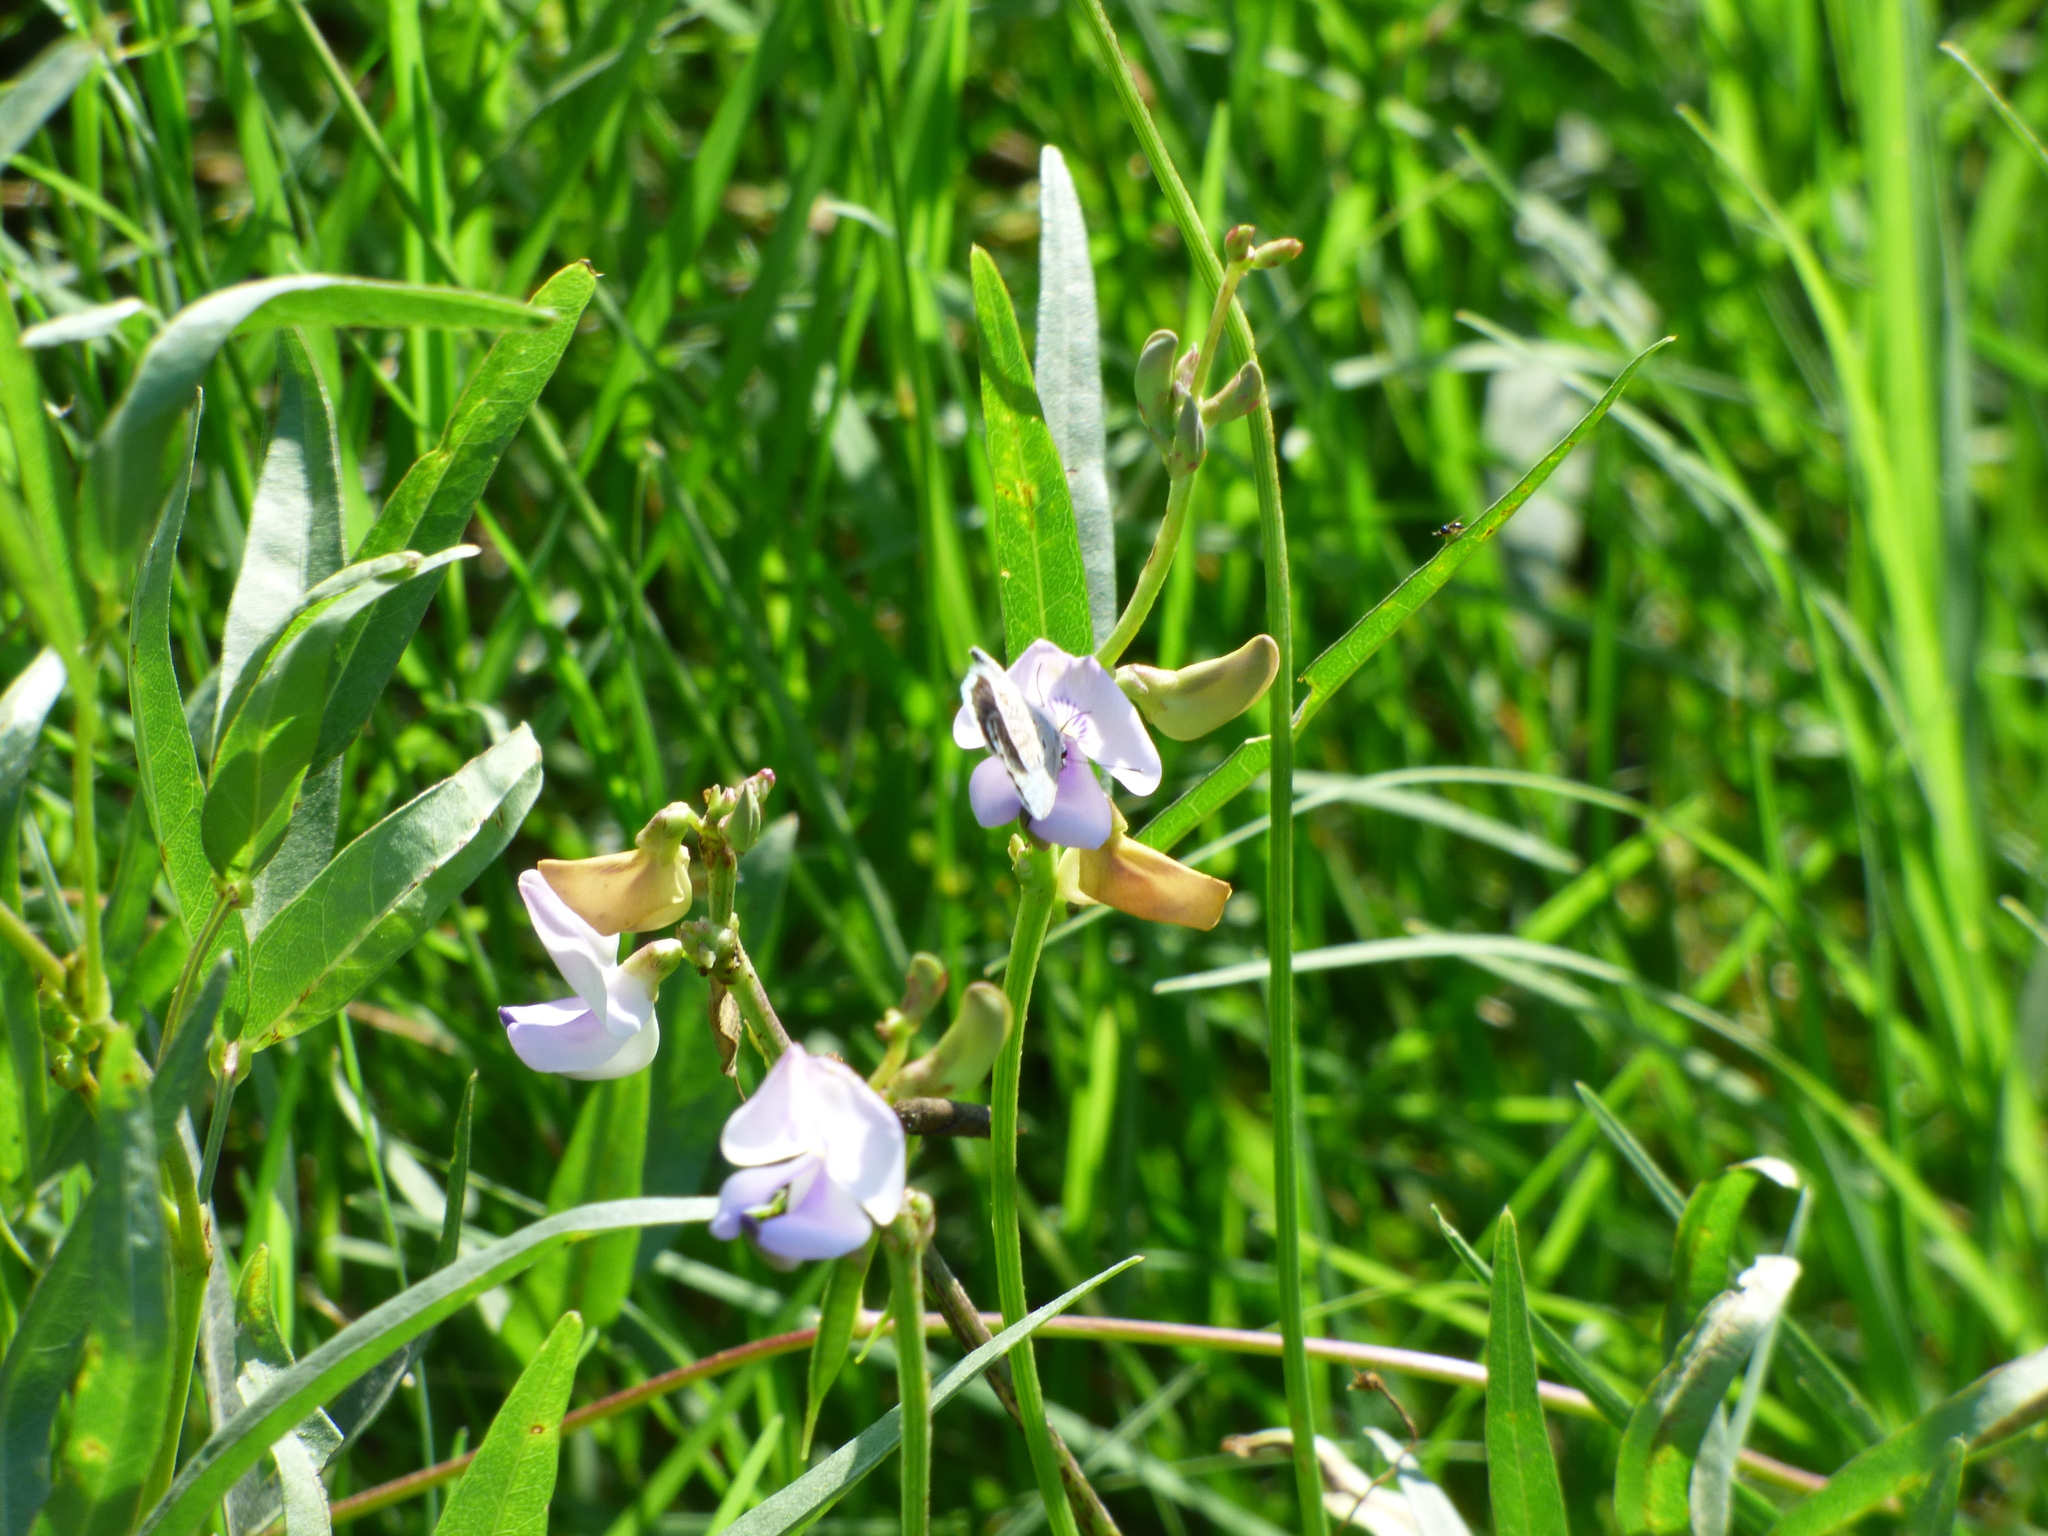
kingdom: Plantae
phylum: Tracheophyta
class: Magnoliopsida
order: Fabales
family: Fabaceae
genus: Dolichopsis
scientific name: Dolichopsis paraguariensis
